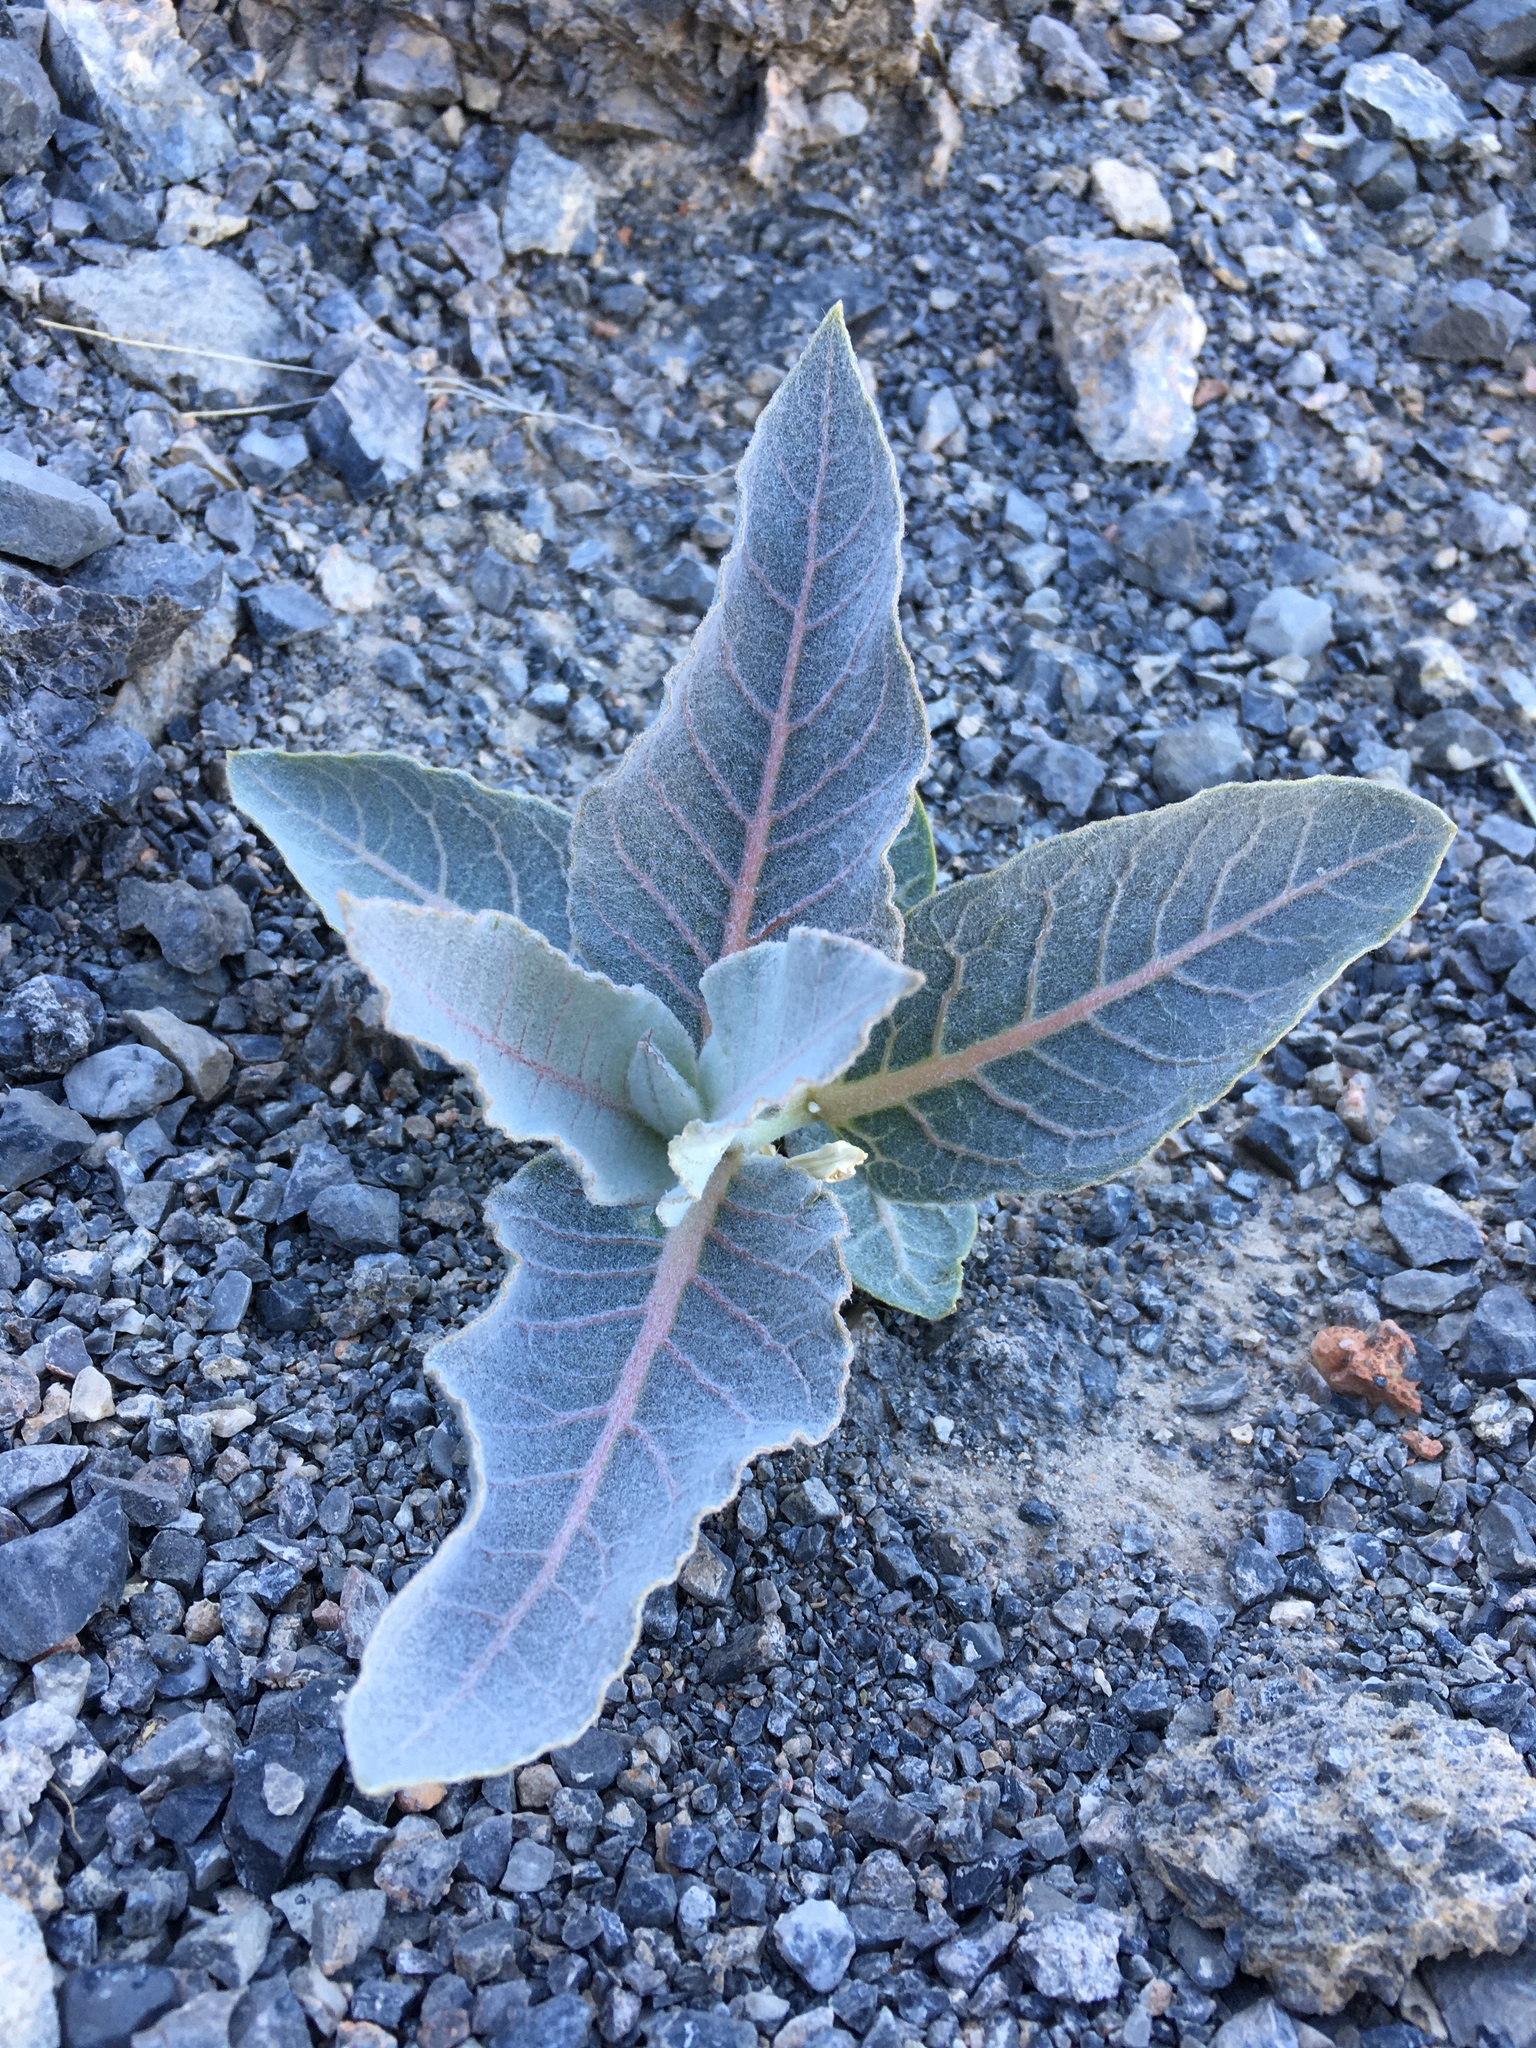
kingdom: Plantae
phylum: Tracheophyta
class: Magnoliopsida
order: Gentianales
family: Apocynaceae
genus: Asclepias
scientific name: Asclepias erosa
